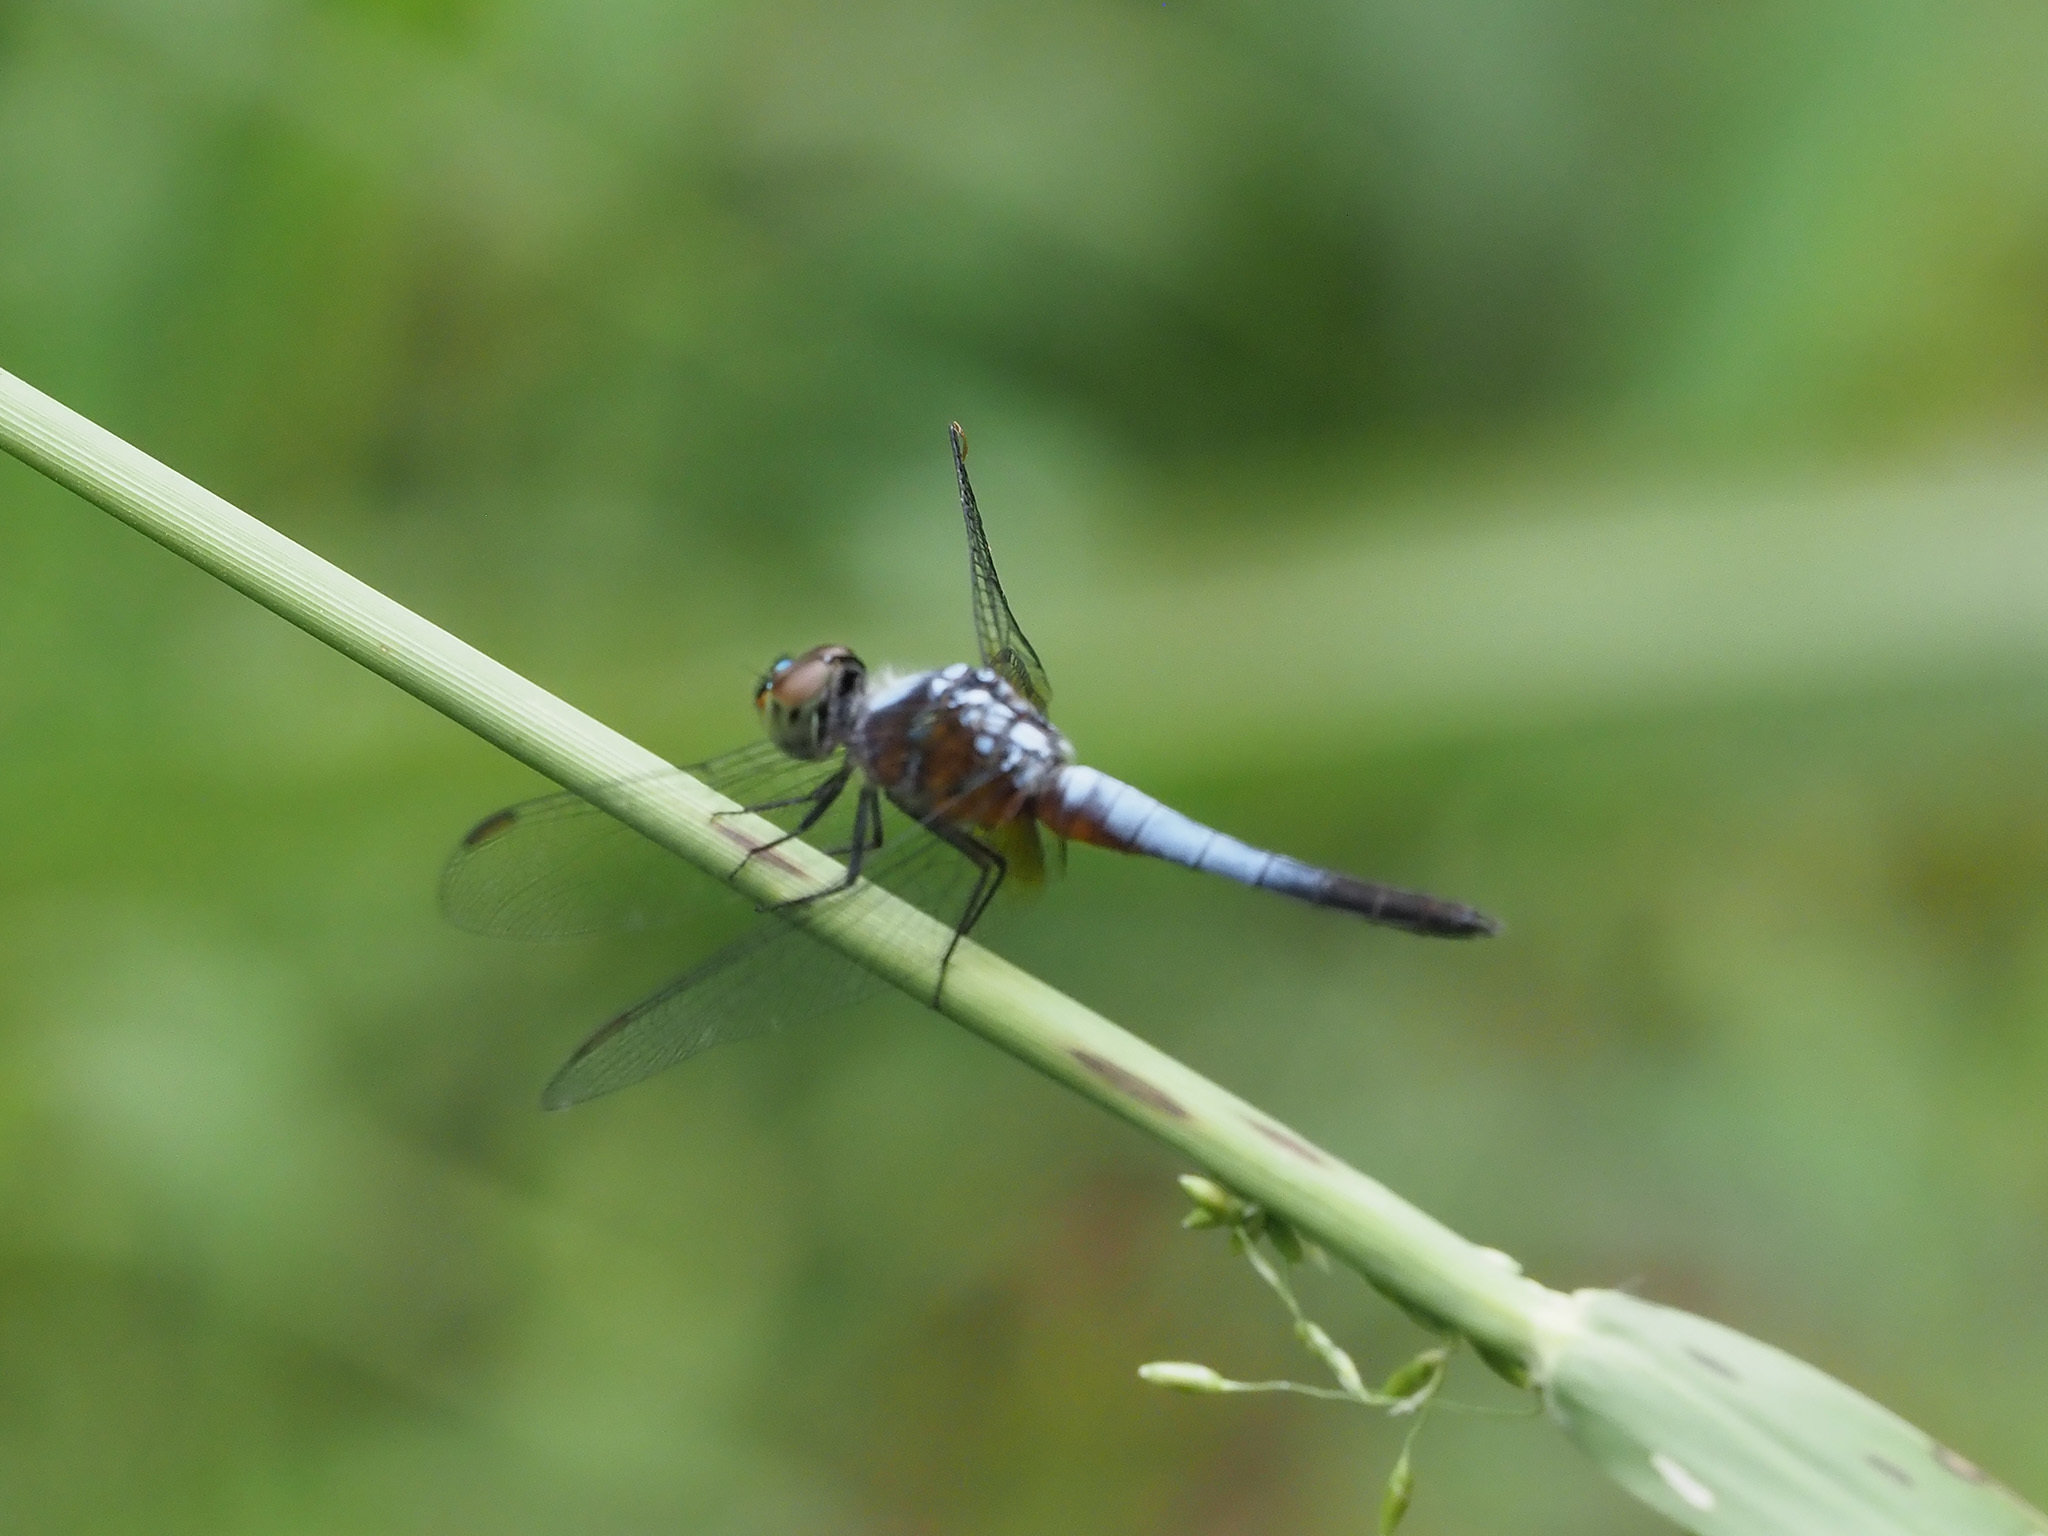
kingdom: Animalia
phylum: Arthropoda
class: Insecta
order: Odonata
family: Libellulidae
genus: Brachydiplax
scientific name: Brachydiplax chalybea
